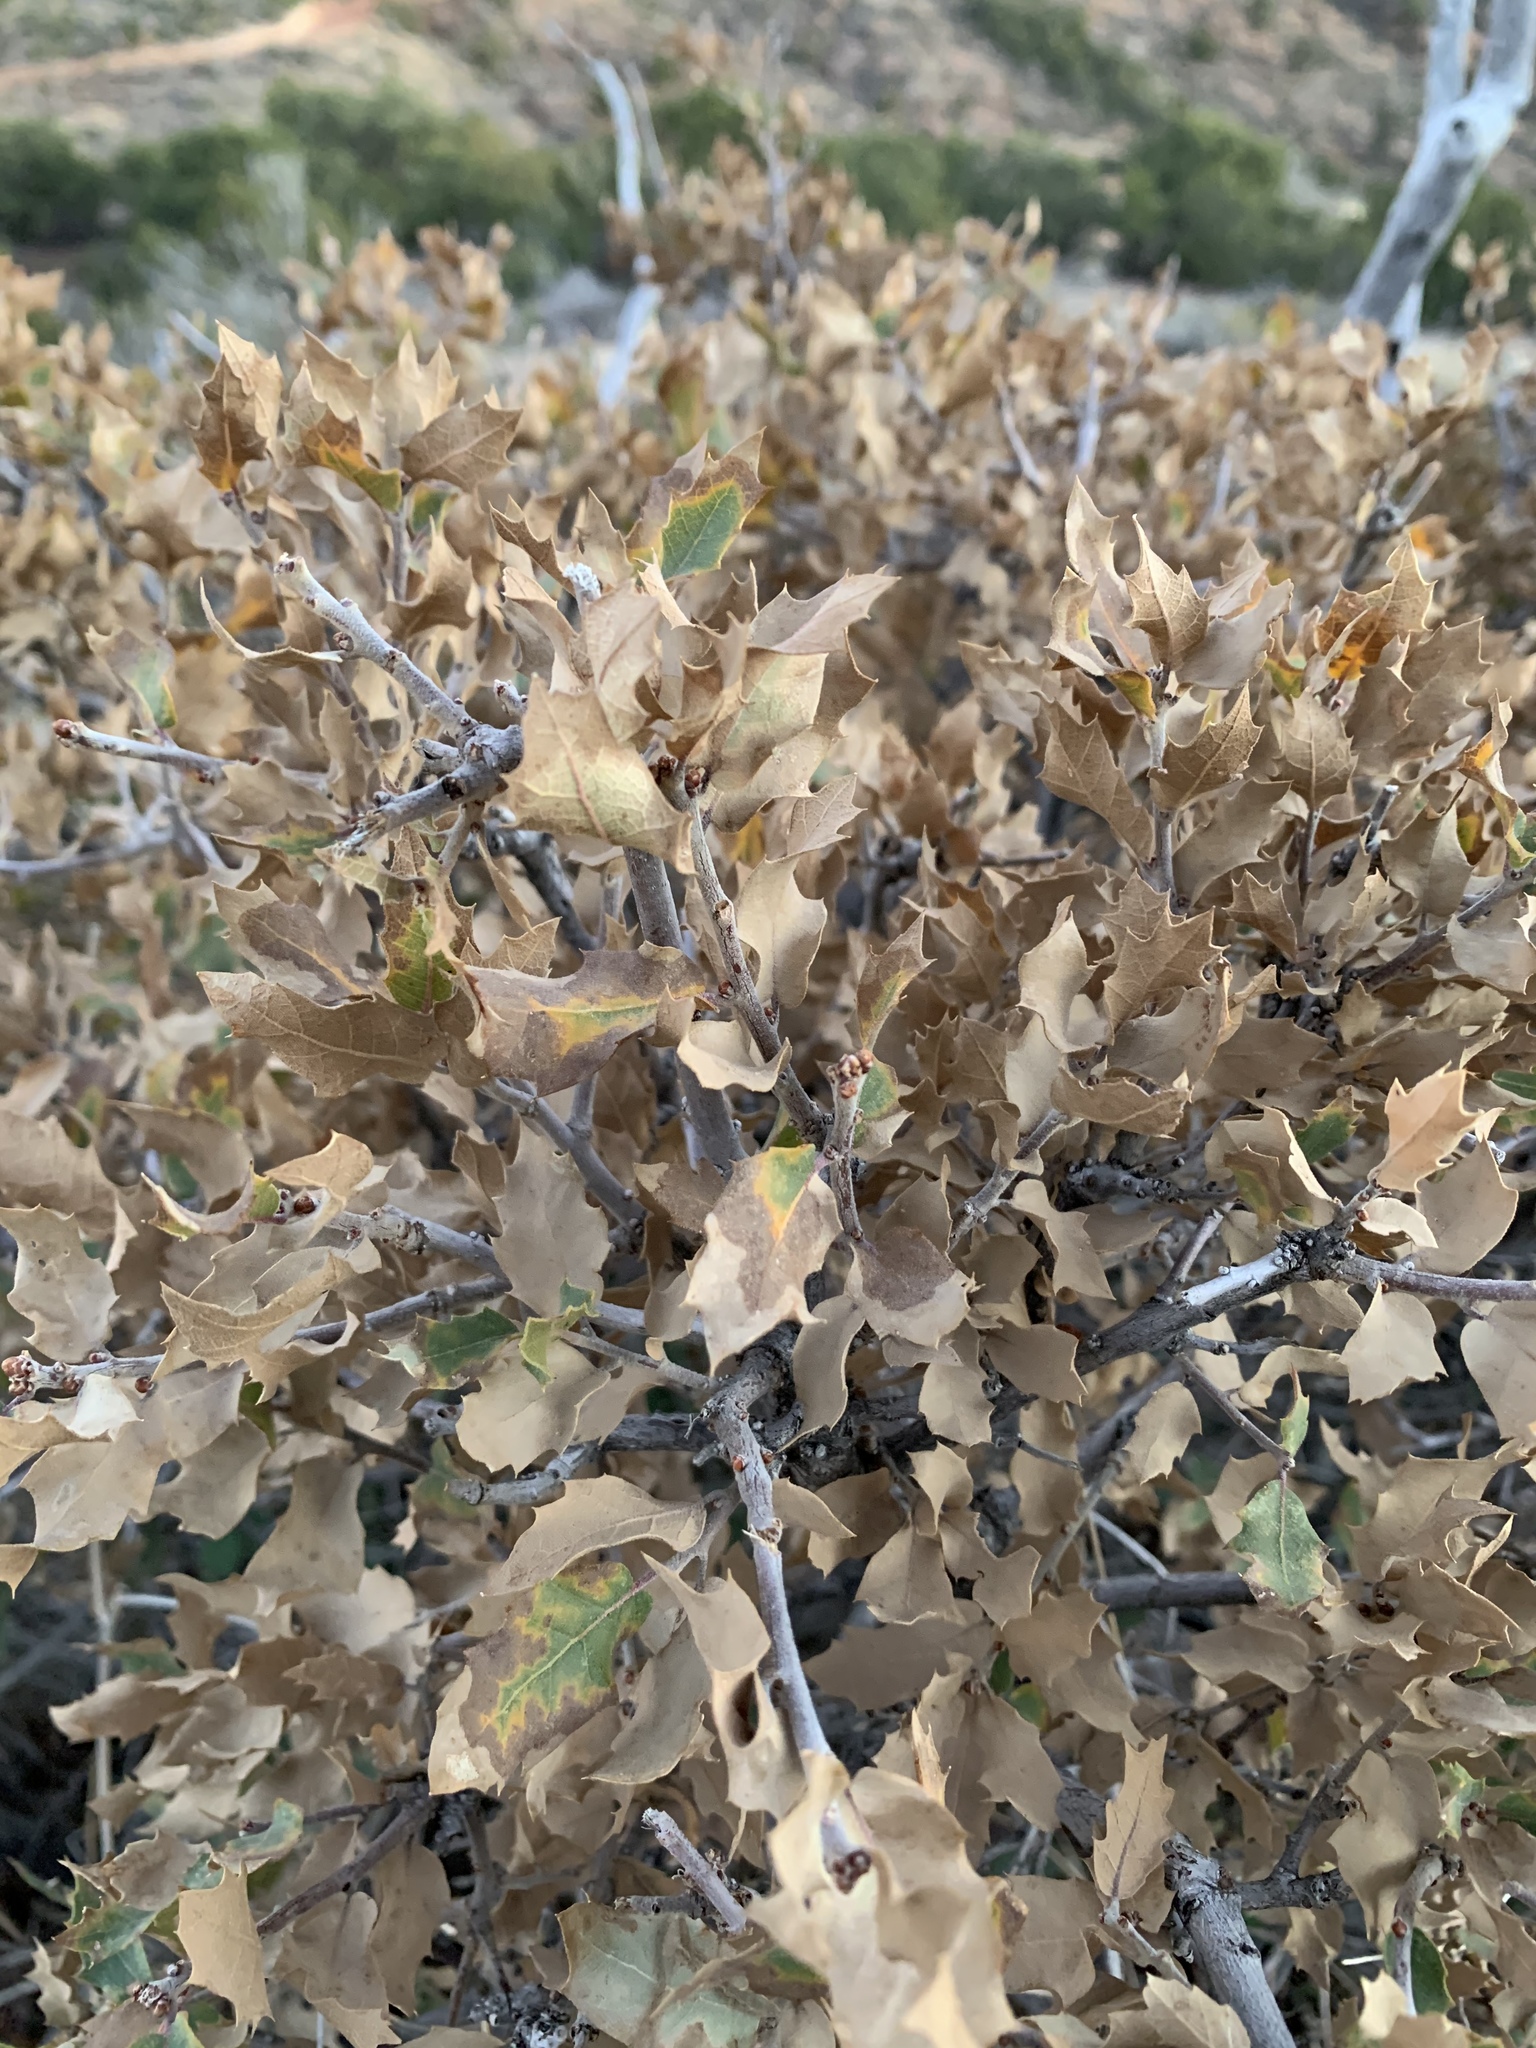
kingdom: Plantae
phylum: Tracheophyta
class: Magnoliopsida
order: Fagales
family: Fagaceae
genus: Quercus
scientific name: Quercus turbinella
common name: Sonoran scrub oak
